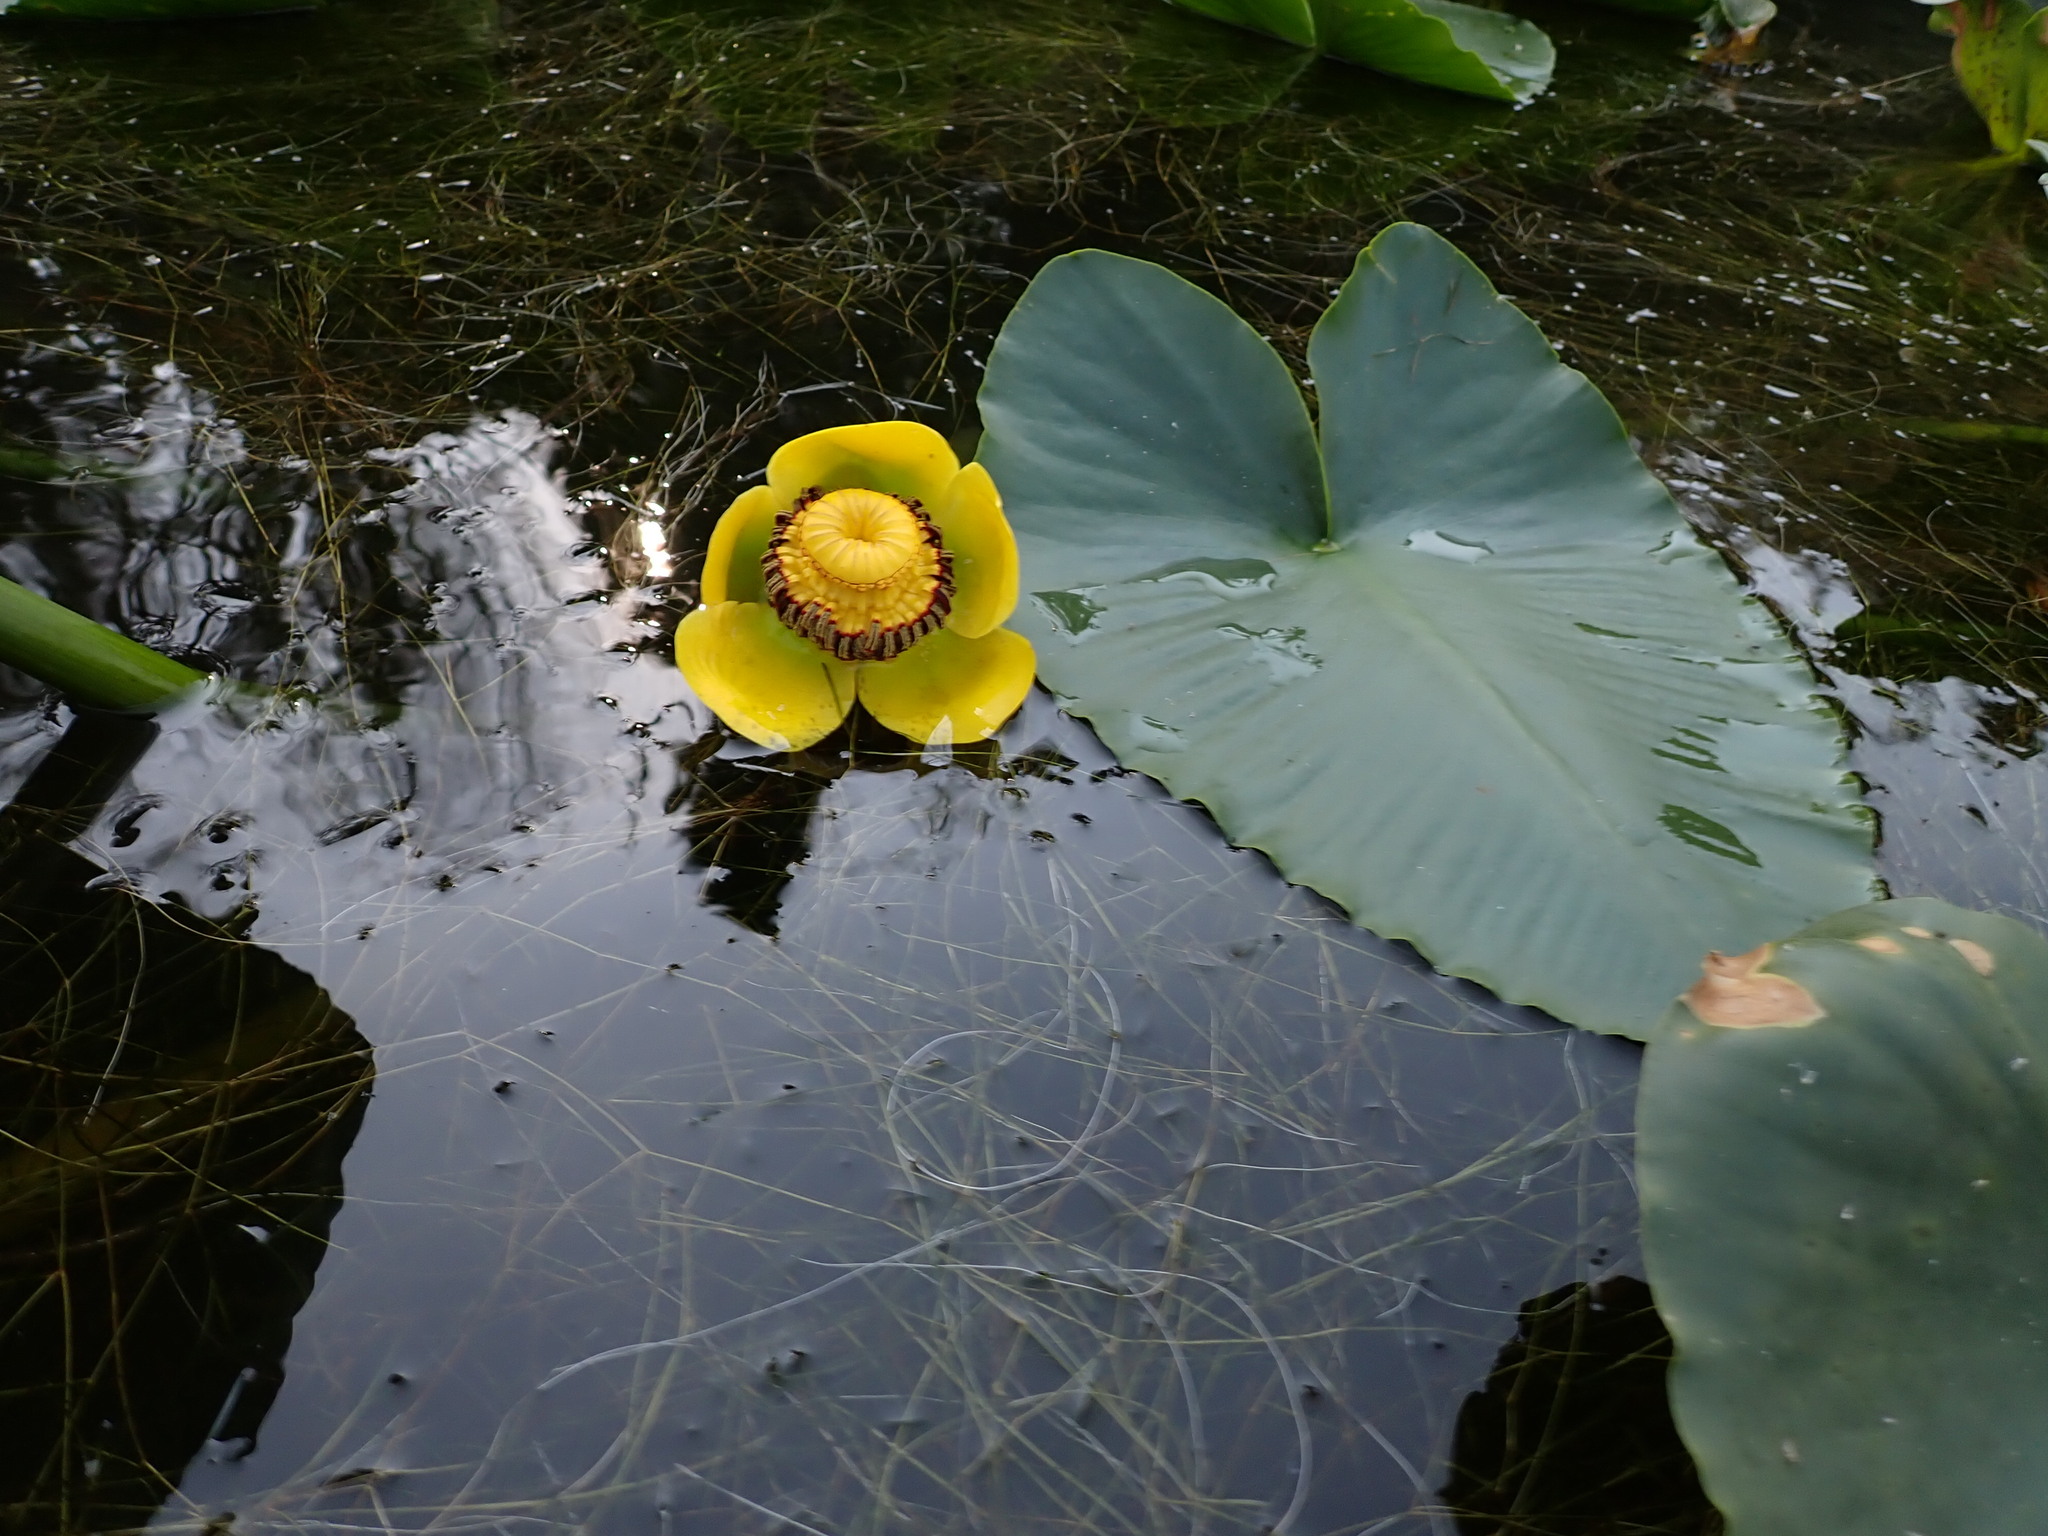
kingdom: Plantae
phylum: Tracheophyta
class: Magnoliopsida
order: Nymphaeales
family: Nymphaeaceae
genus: Nuphar
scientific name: Nuphar polysepala
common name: Rocky mountain cow-lily
